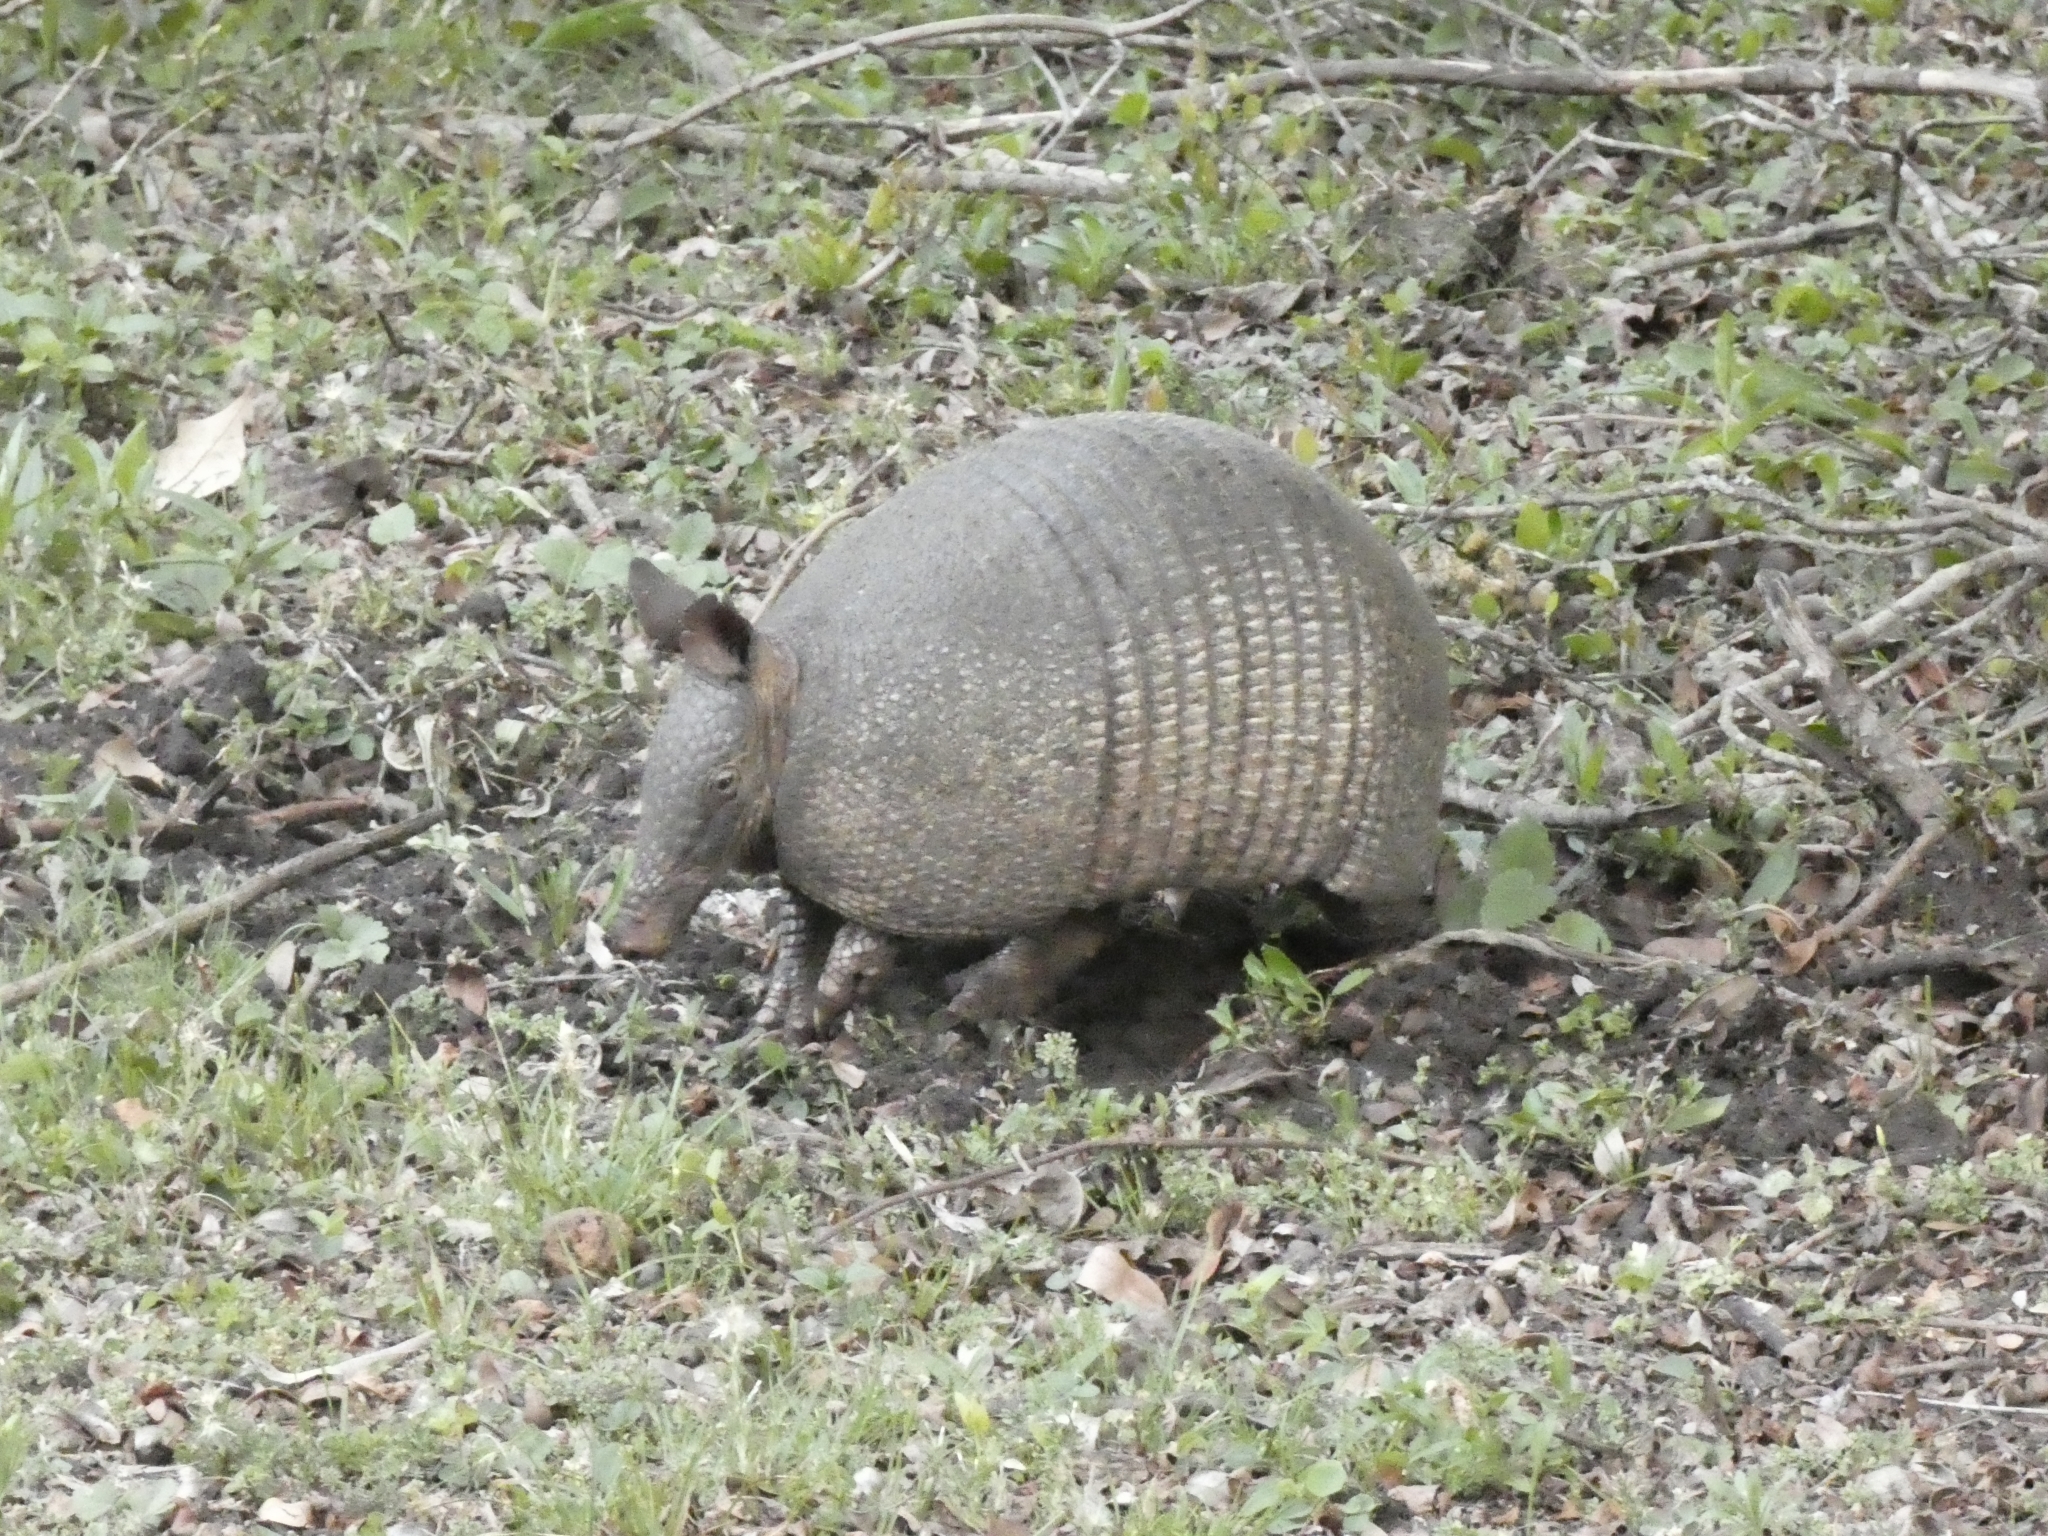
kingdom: Animalia
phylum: Chordata
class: Mammalia
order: Cingulata
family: Dasypodidae
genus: Dasypus
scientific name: Dasypus novemcinctus
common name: Nine-banded armadillo
